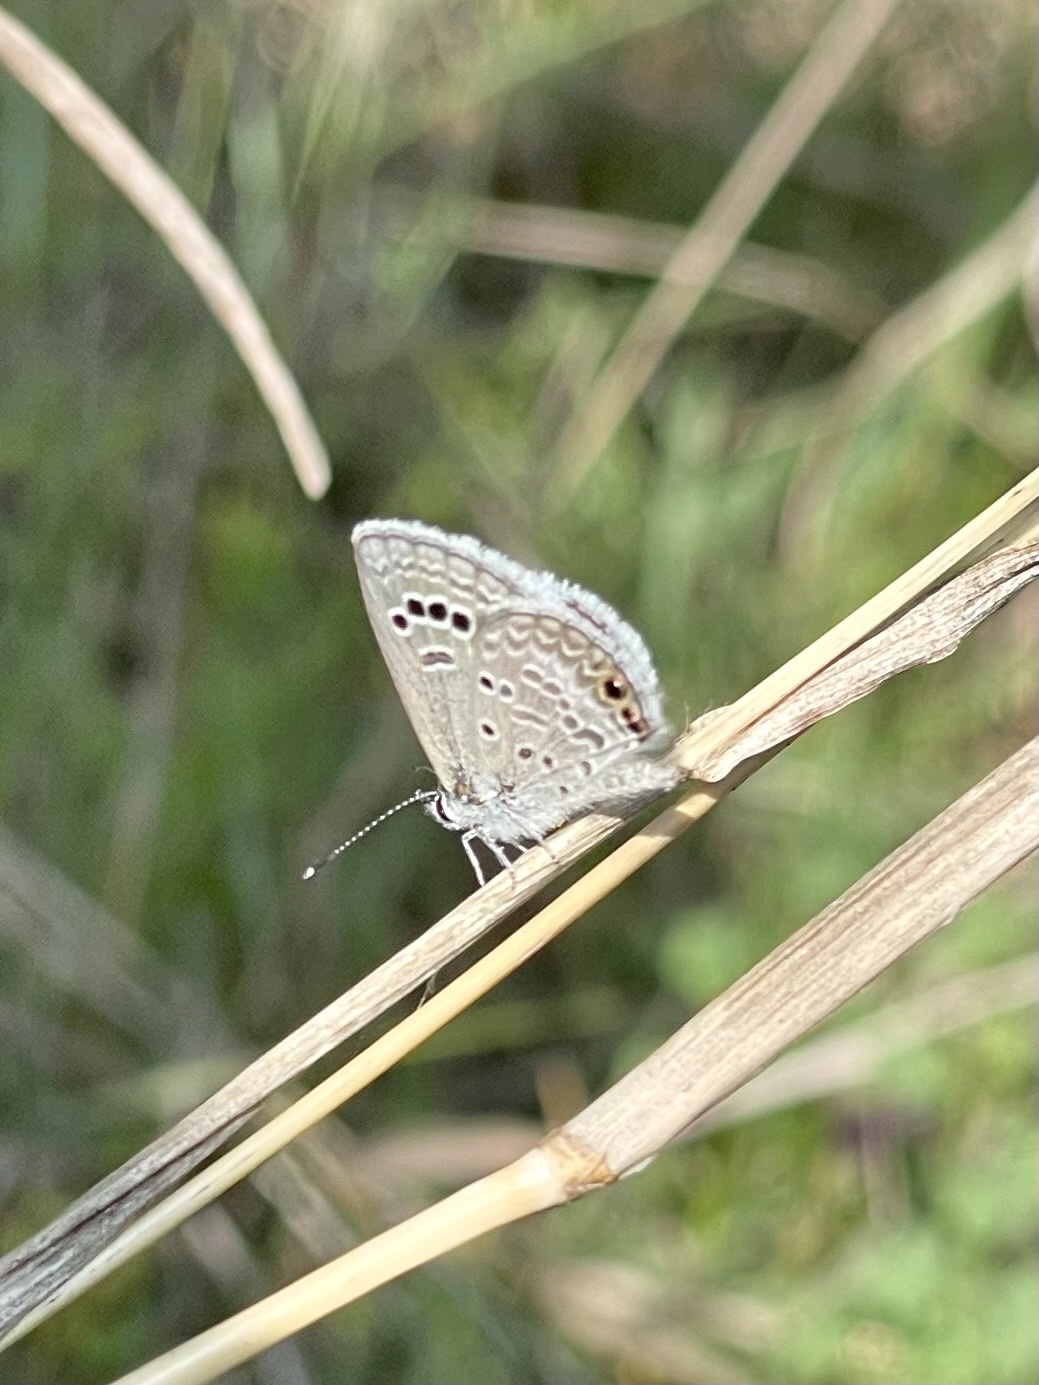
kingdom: Animalia
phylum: Arthropoda
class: Insecta
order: Lepidoptera
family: Lycaenidae
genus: Echinargus
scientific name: Echinargus isola
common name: Reakirt's blue
